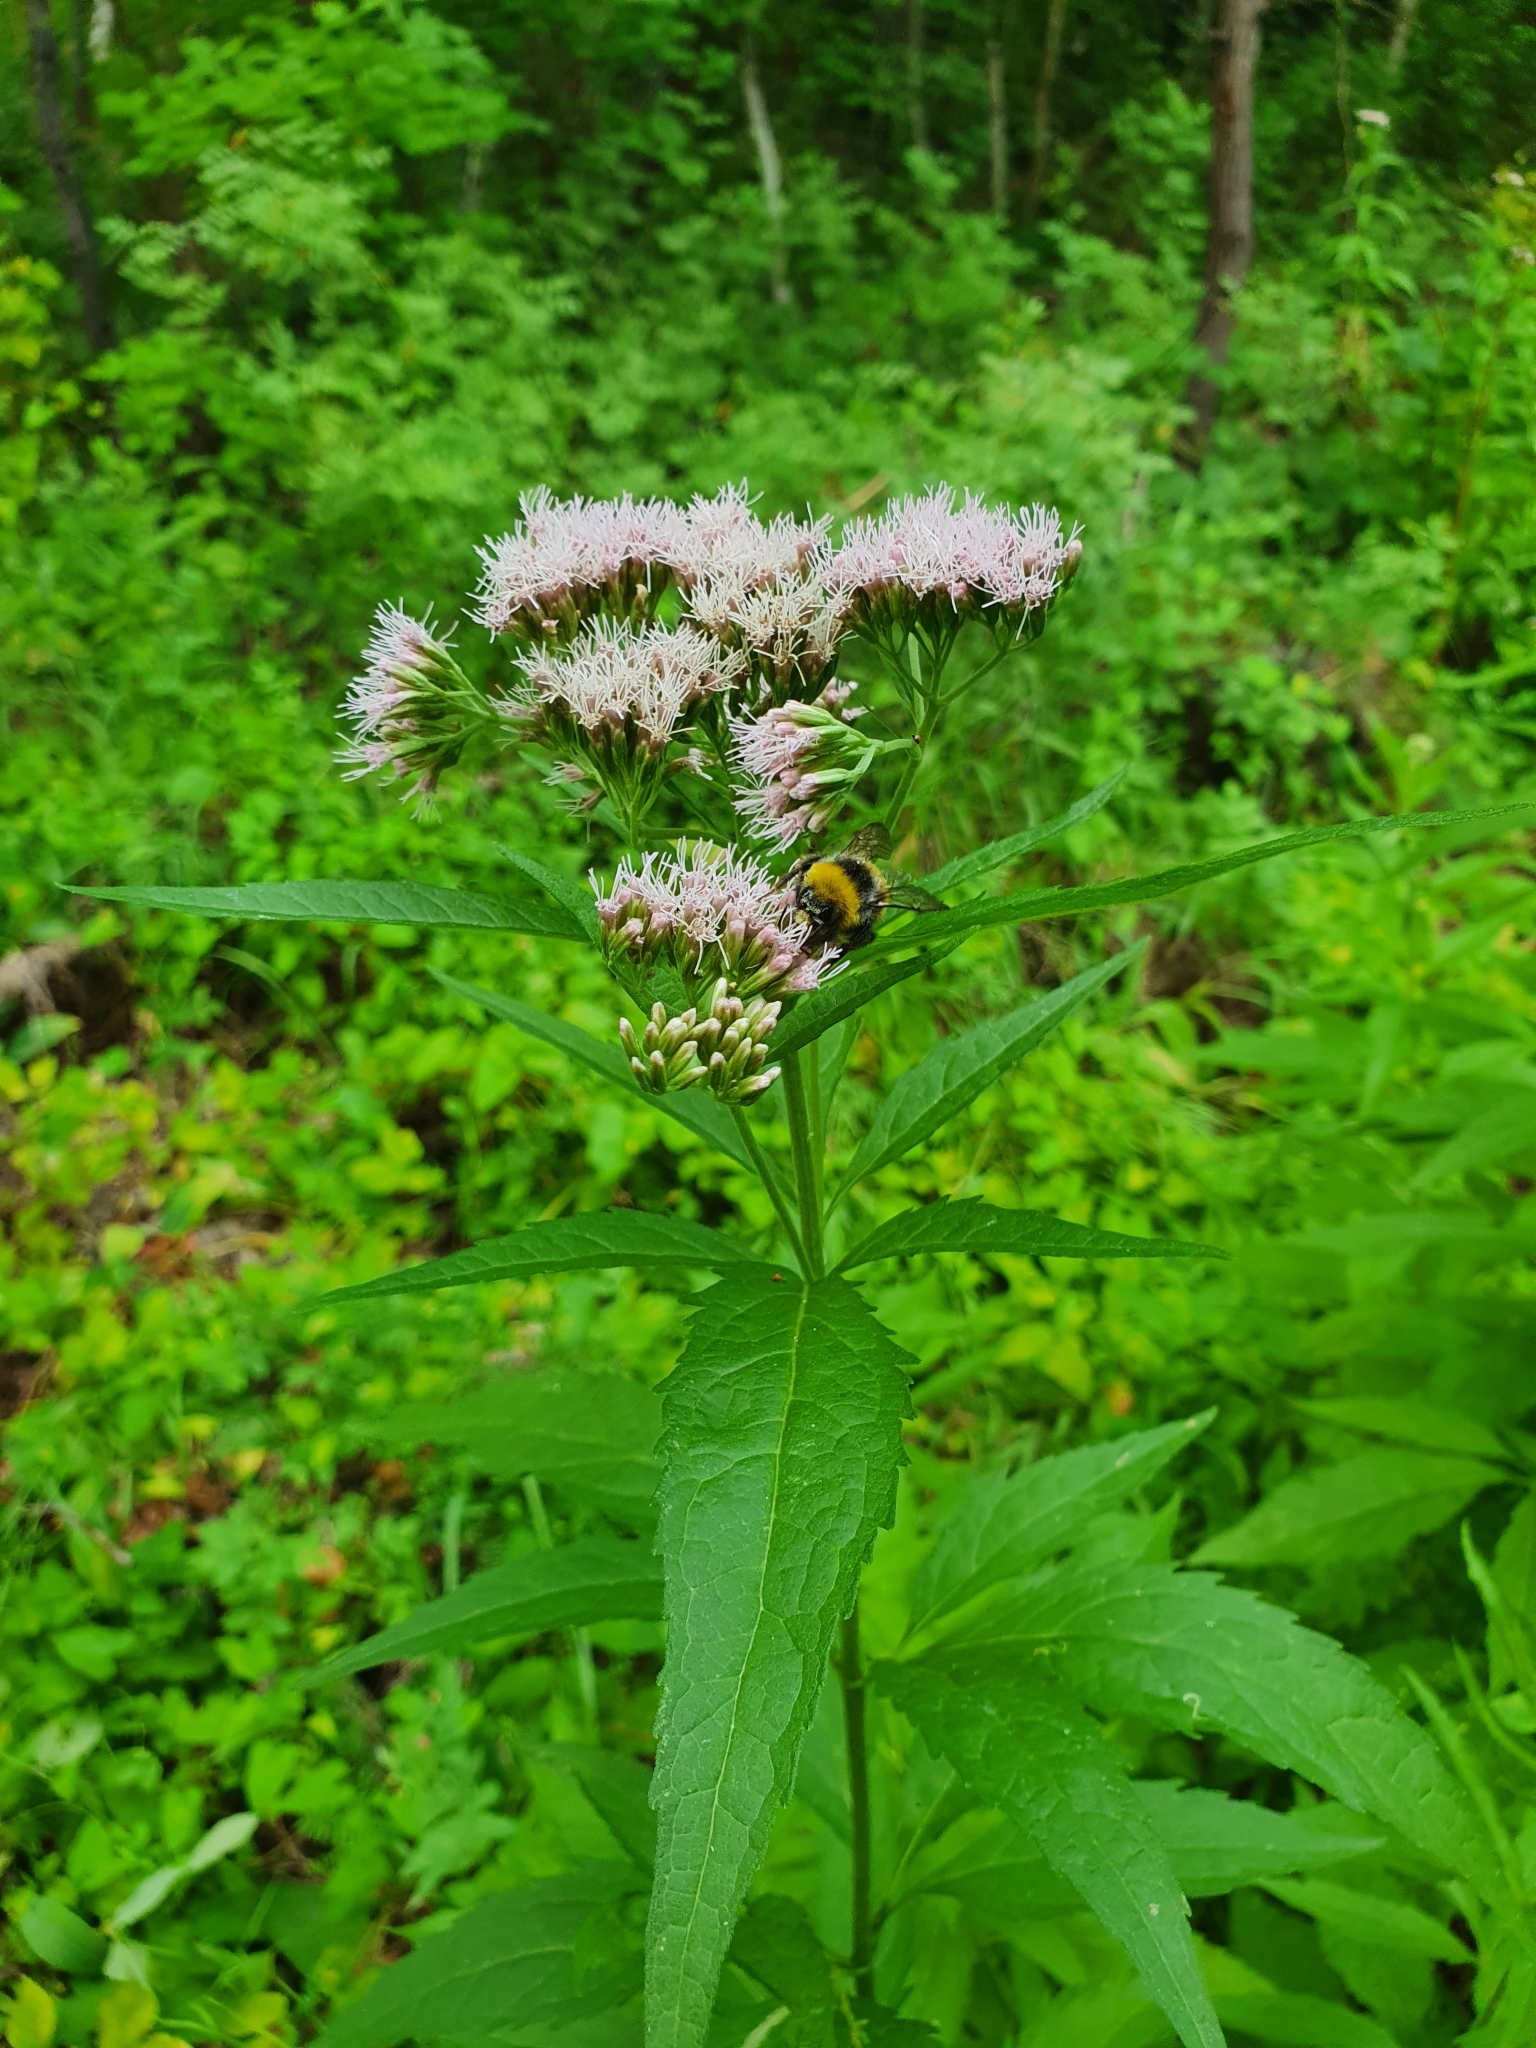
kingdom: Plantae
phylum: Tracheophyta
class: Magnoliopsida
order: Asterales
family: Asteraceae
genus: Eupatorium
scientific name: Eupatorium cannabinum
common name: Hemp-agrimony
